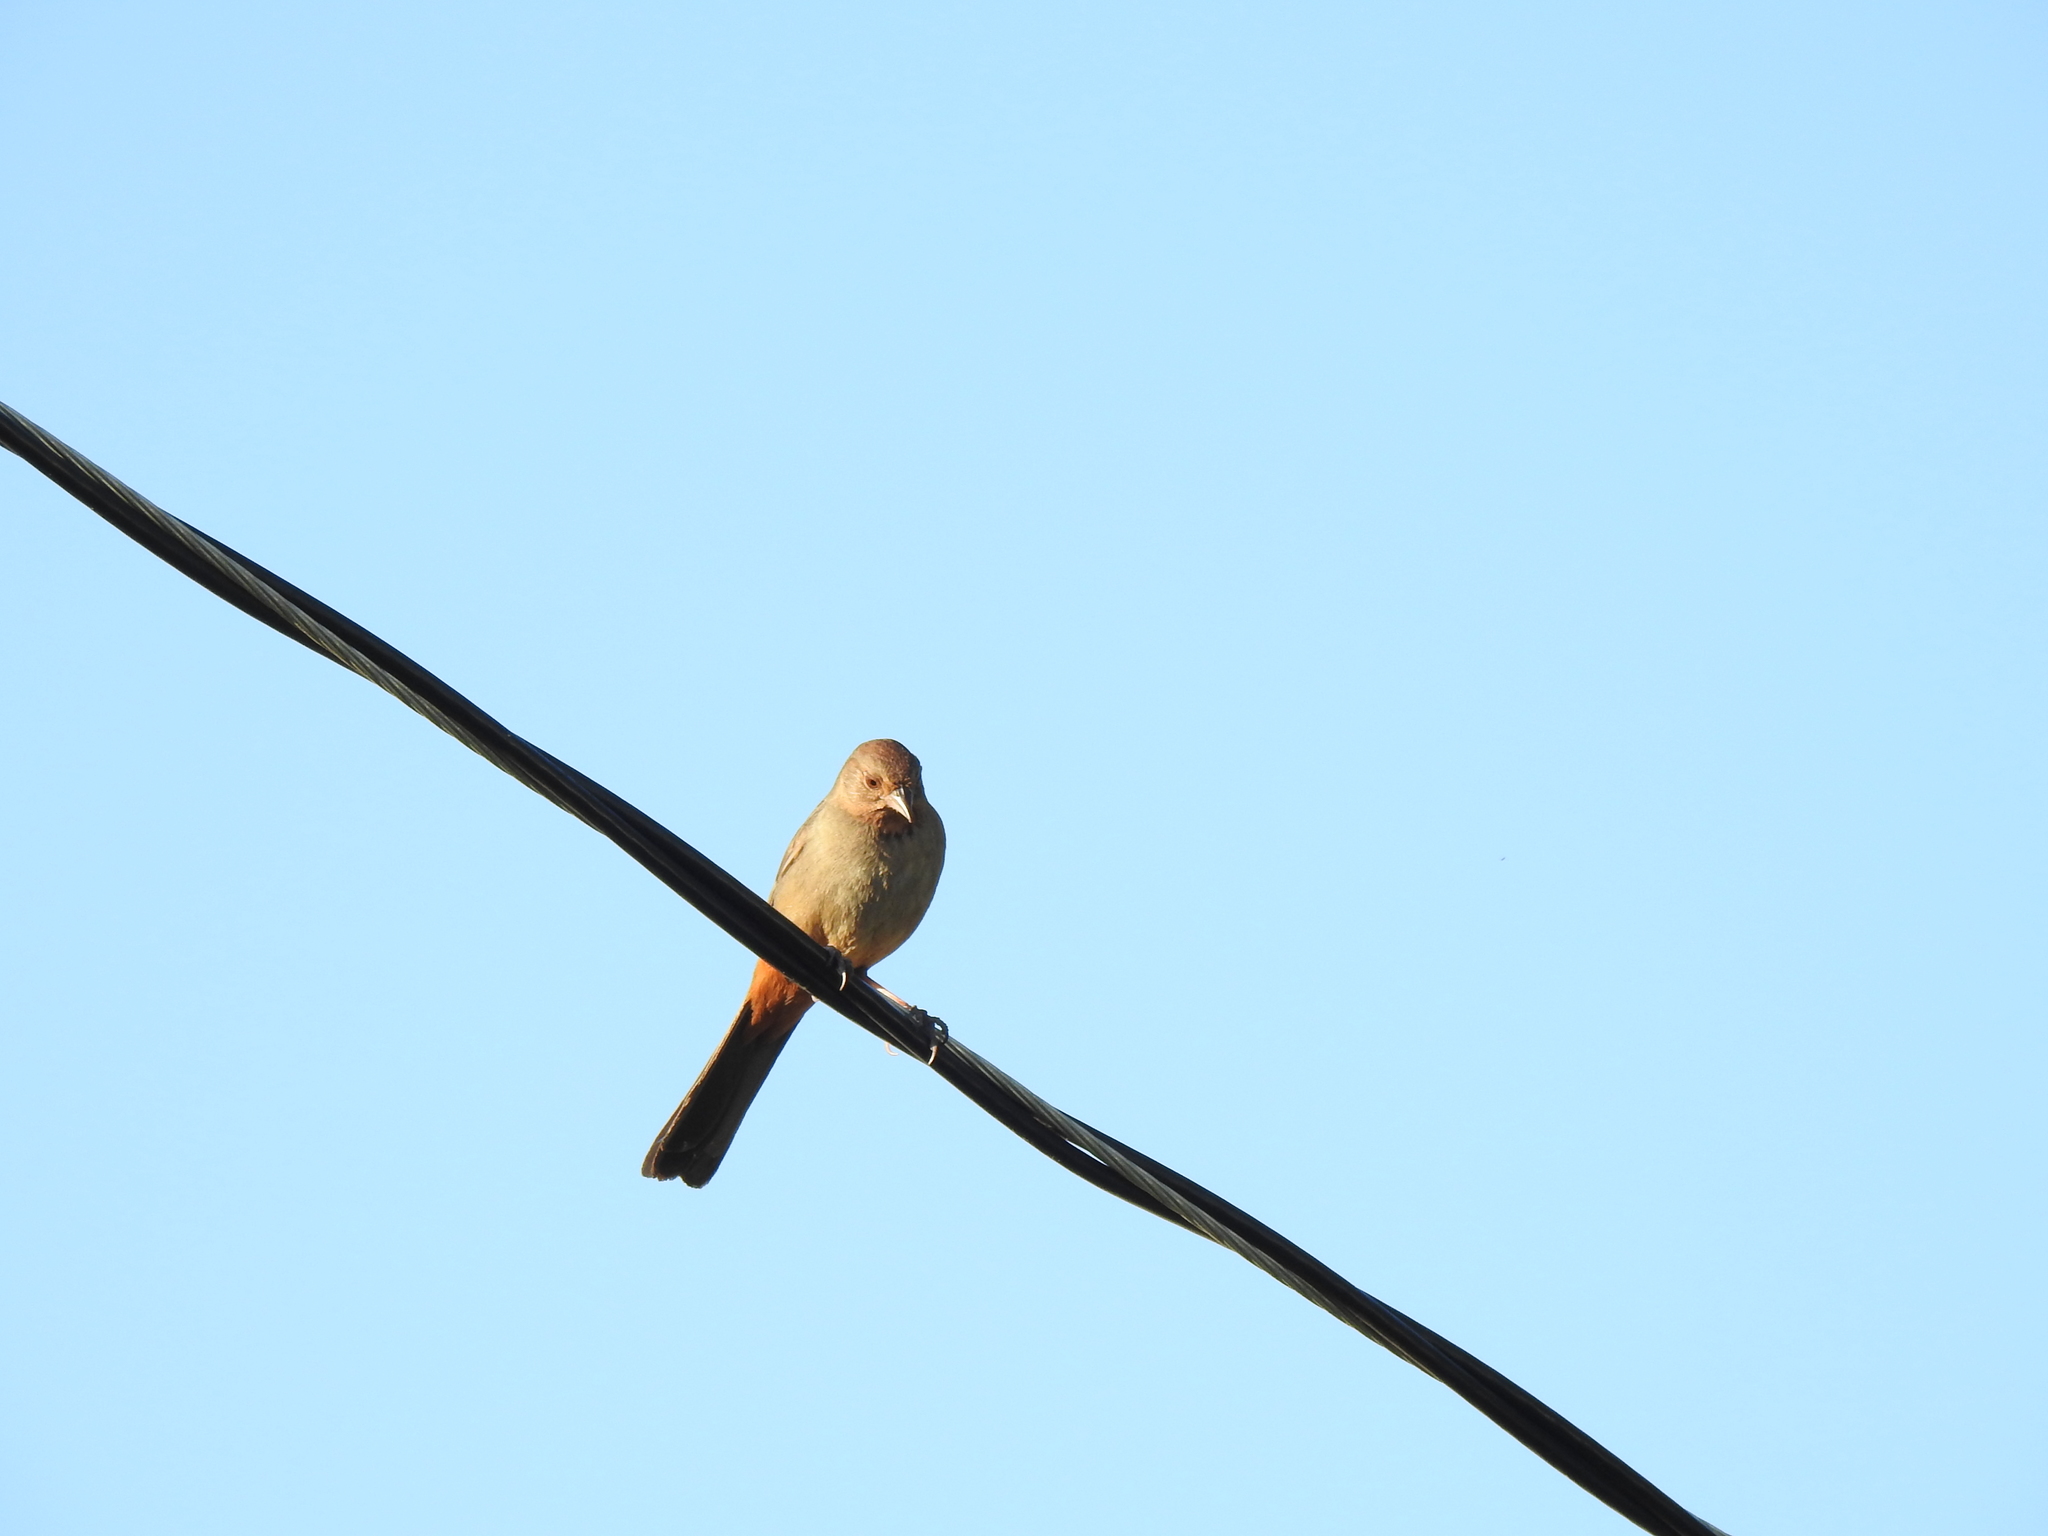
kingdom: Animalia
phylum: Chordata
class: Aves
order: Passeriformes
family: Passerellidae
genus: Melozone
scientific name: Melozone crissalis
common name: California towhee
